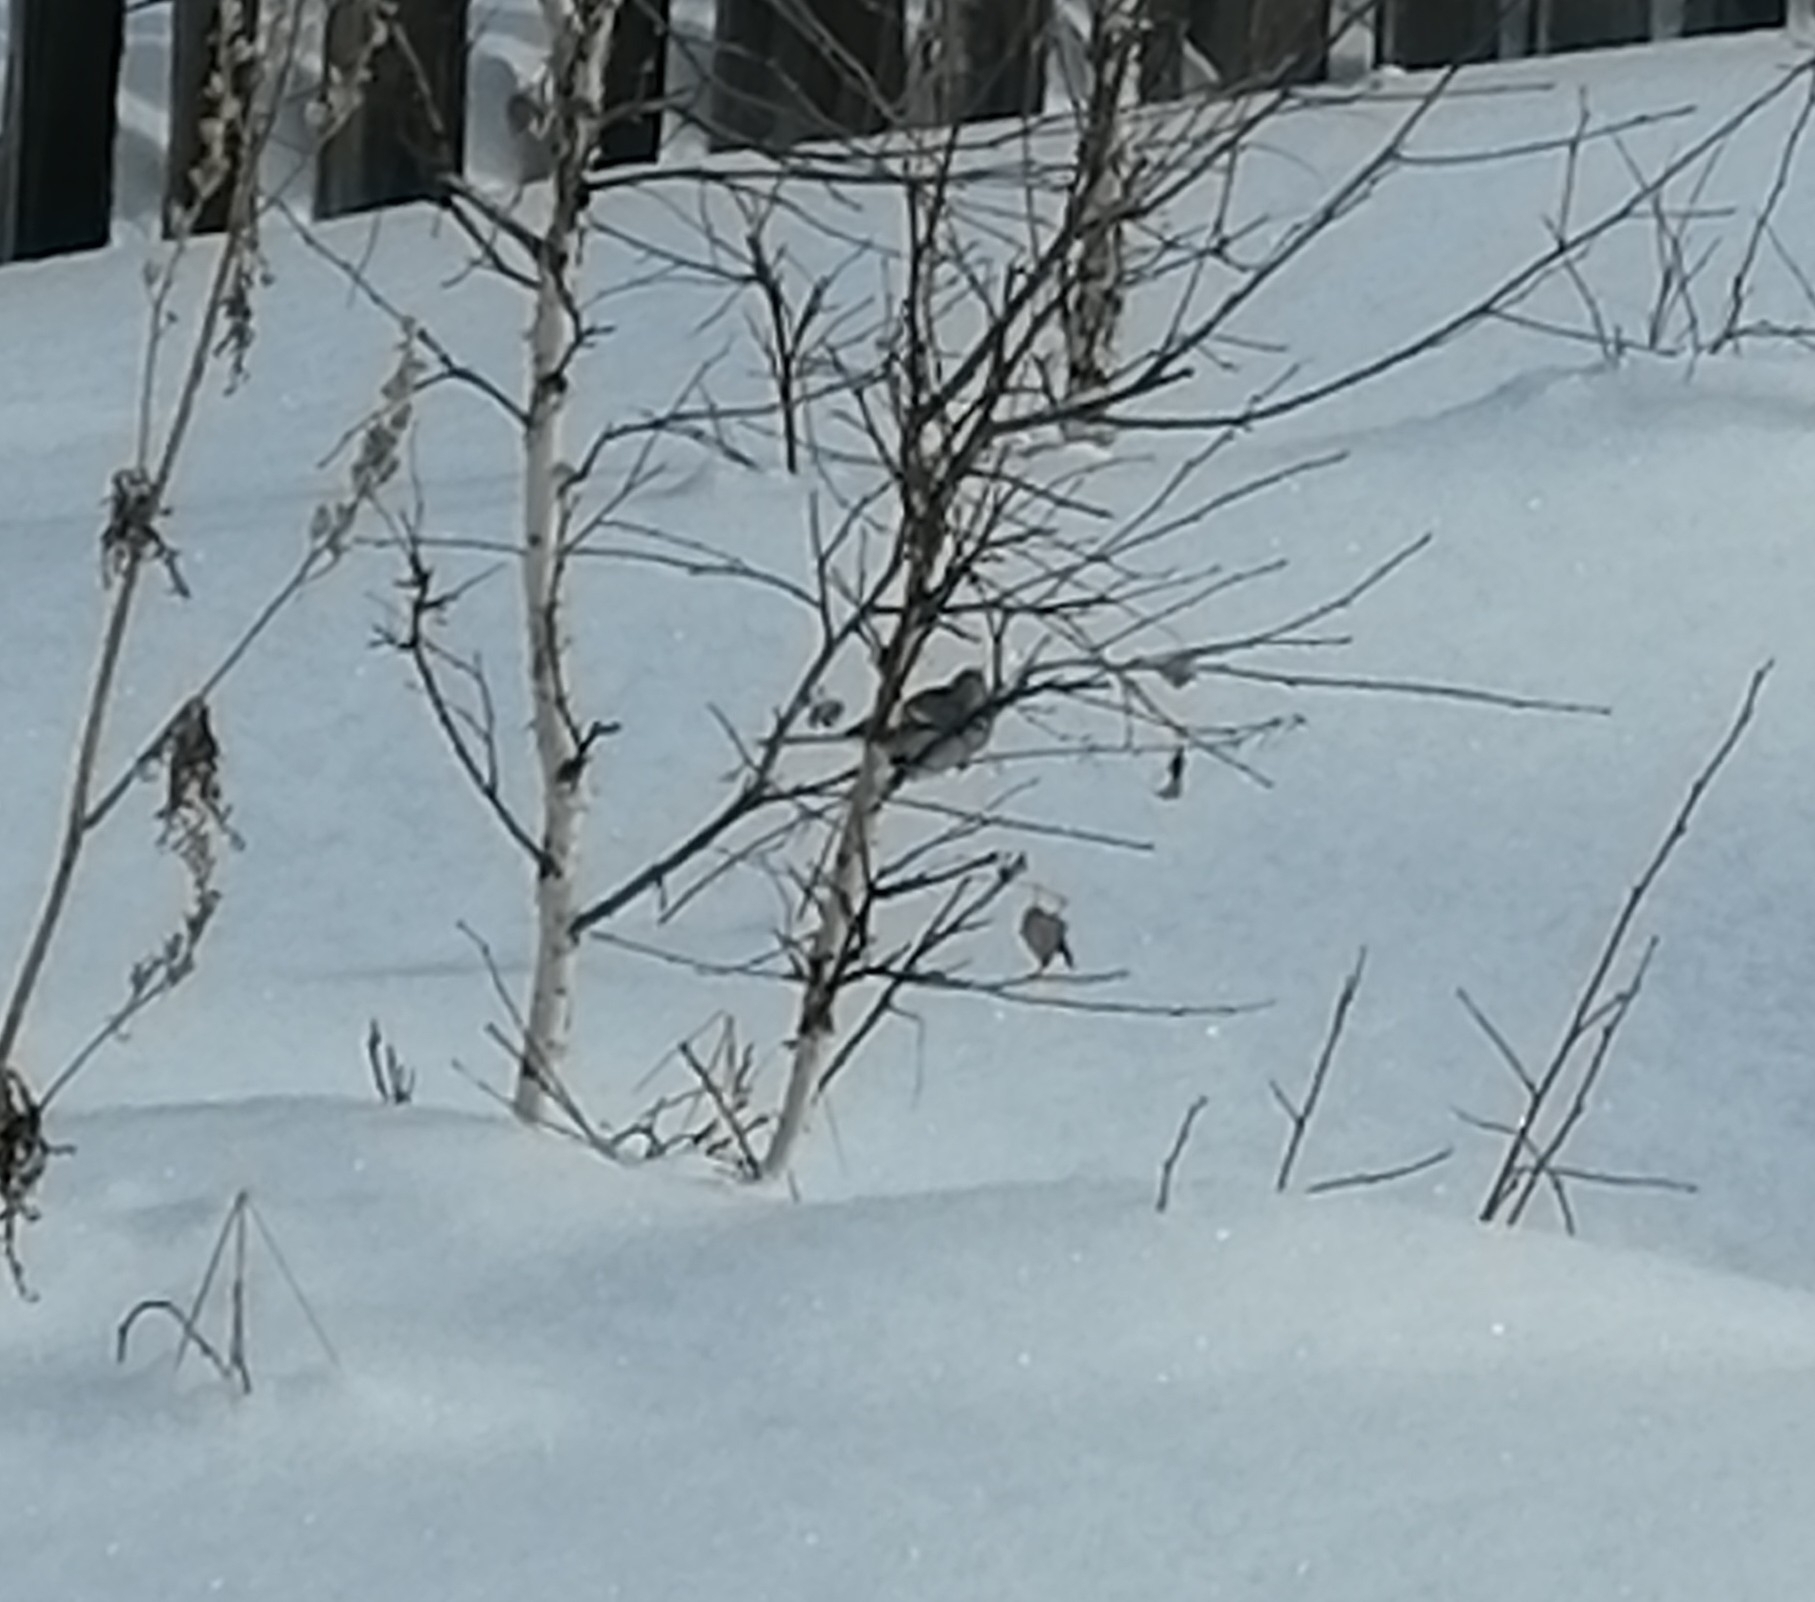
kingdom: Animalia
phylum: Chordata
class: Aves
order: Passeriformes
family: Fringillidae
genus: Carpodacus
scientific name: Carpodacus sibiricus
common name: Long-tailed rosefinch
